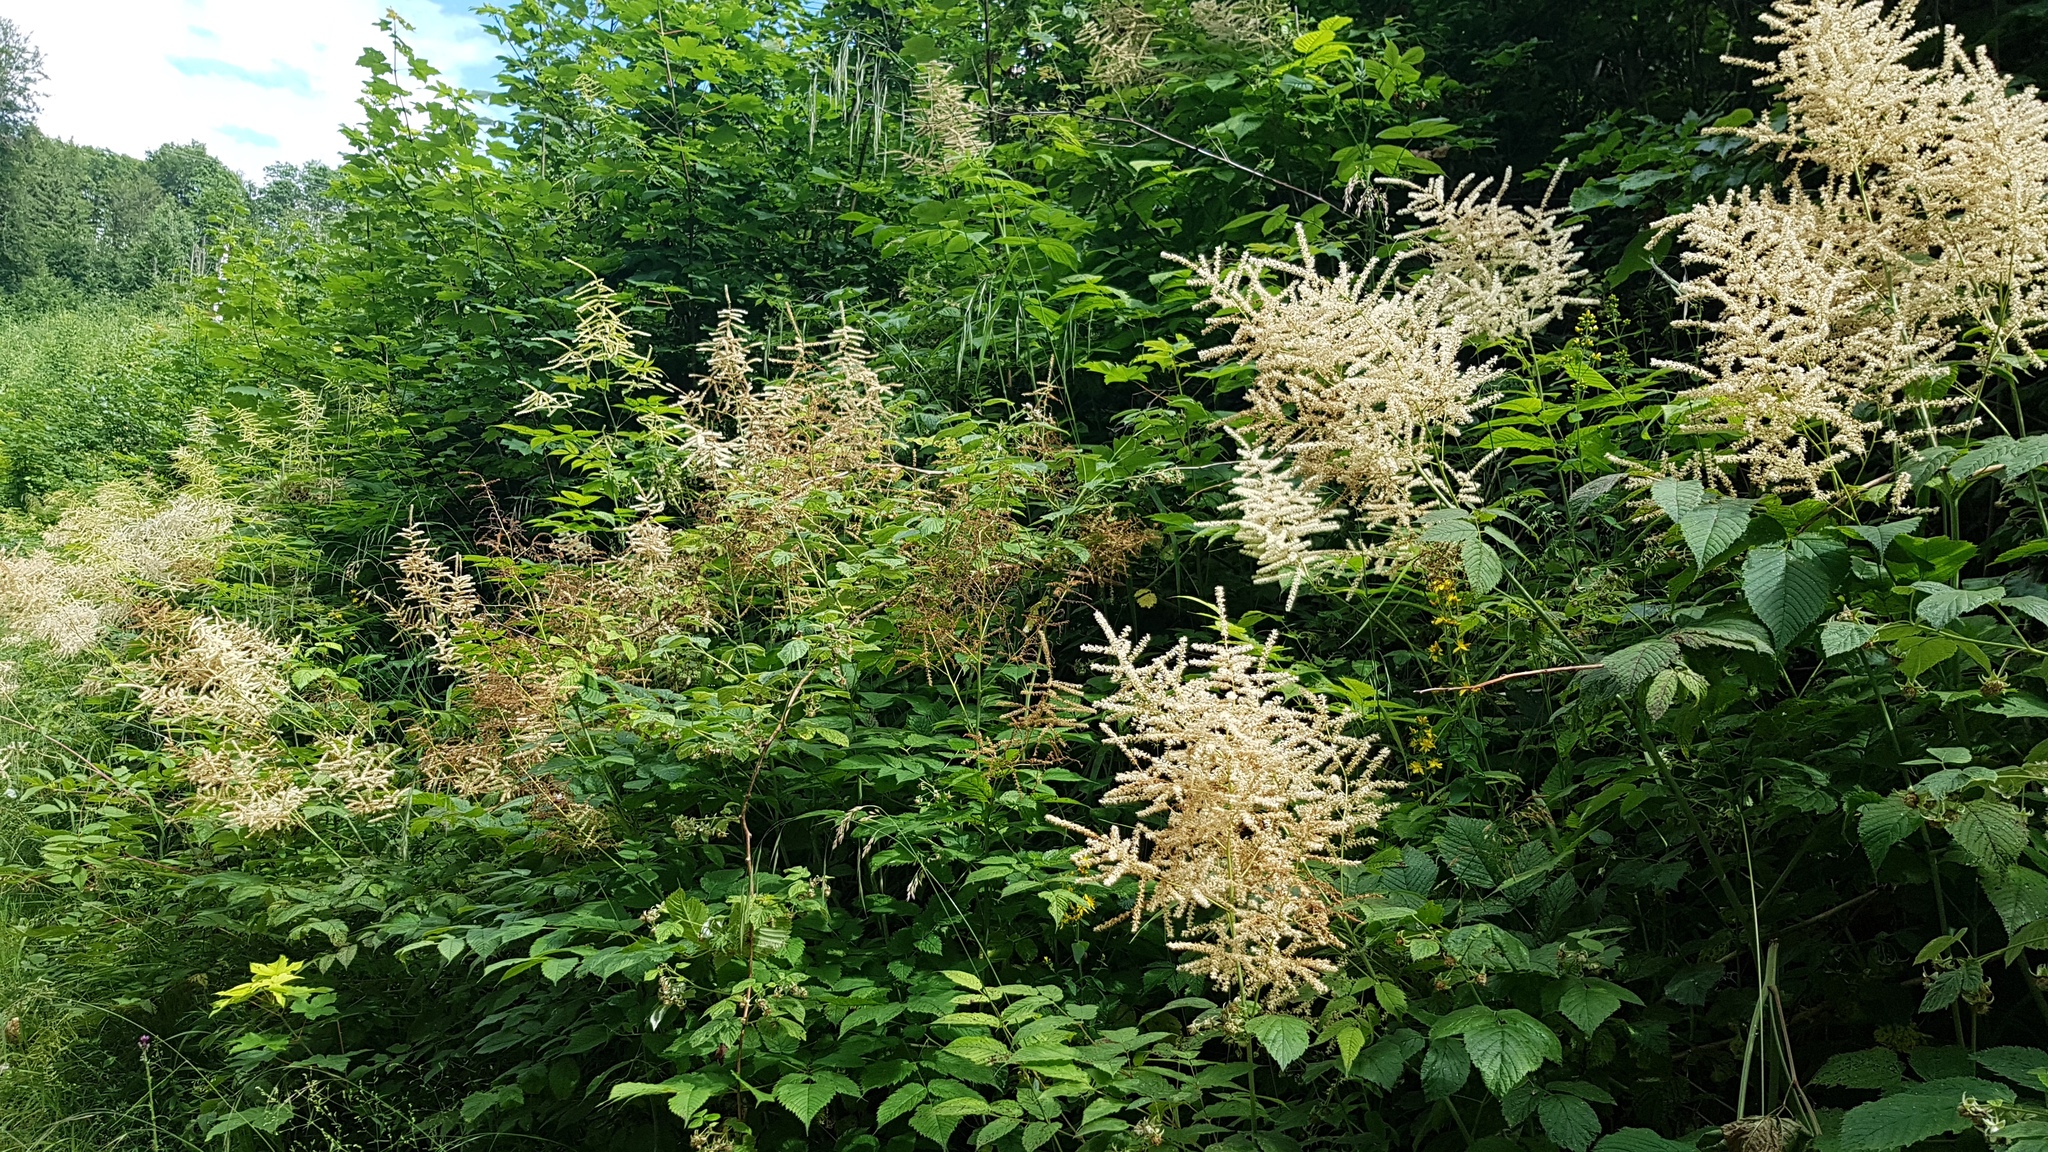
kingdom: Plantae
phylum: Tracheophyta
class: Magnoliopsida
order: Rosales
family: Rosaceae
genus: Aruncus
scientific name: Aruncus dioicus
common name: Buck's-beard
